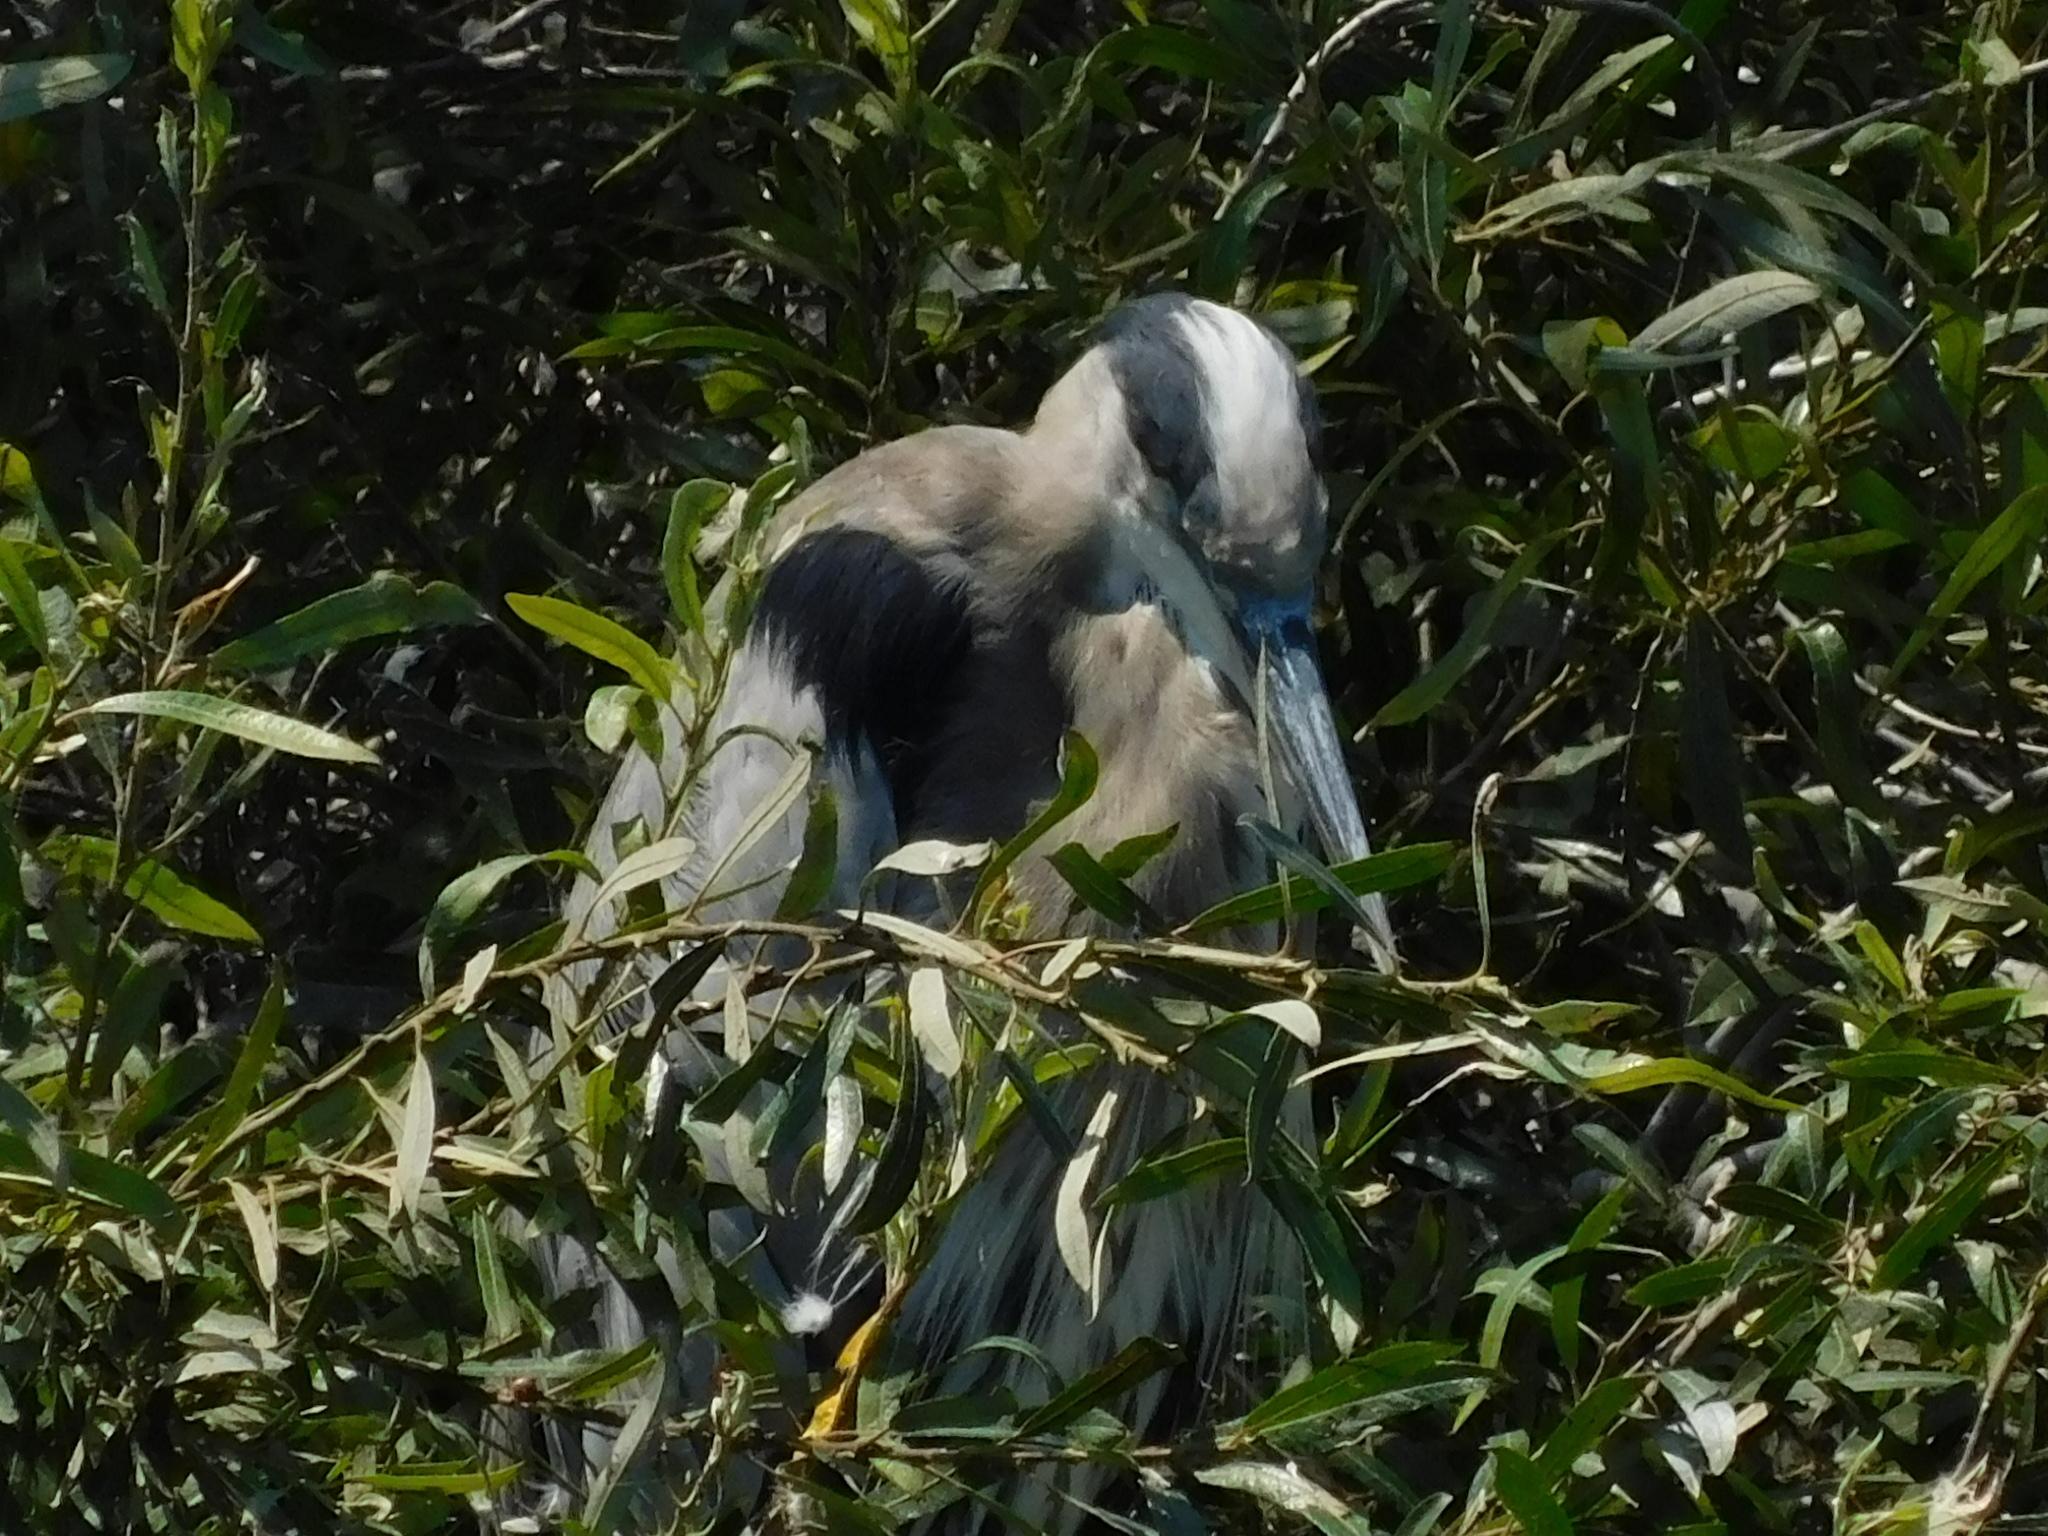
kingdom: Animalia
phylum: Chordata
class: Aves
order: Pelecaniformes
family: Ardeidae
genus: Ardea
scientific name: Ardea herodias
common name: Great blue heron
